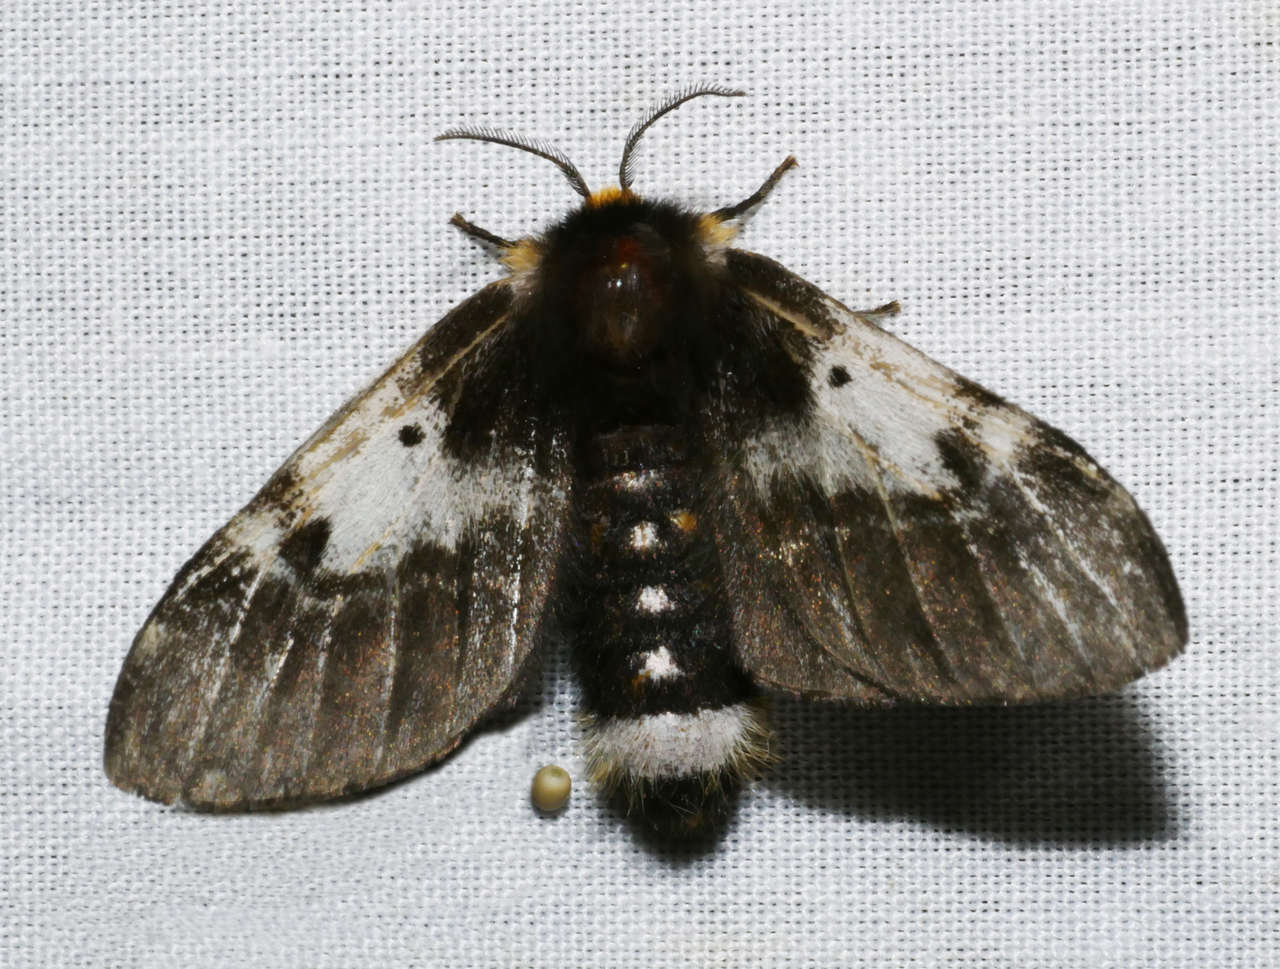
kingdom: Animalia
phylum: Arthropoda
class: Insecta
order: Lepidoptera
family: Anthelidae
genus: Nataxa
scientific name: Nataxa flavescens
